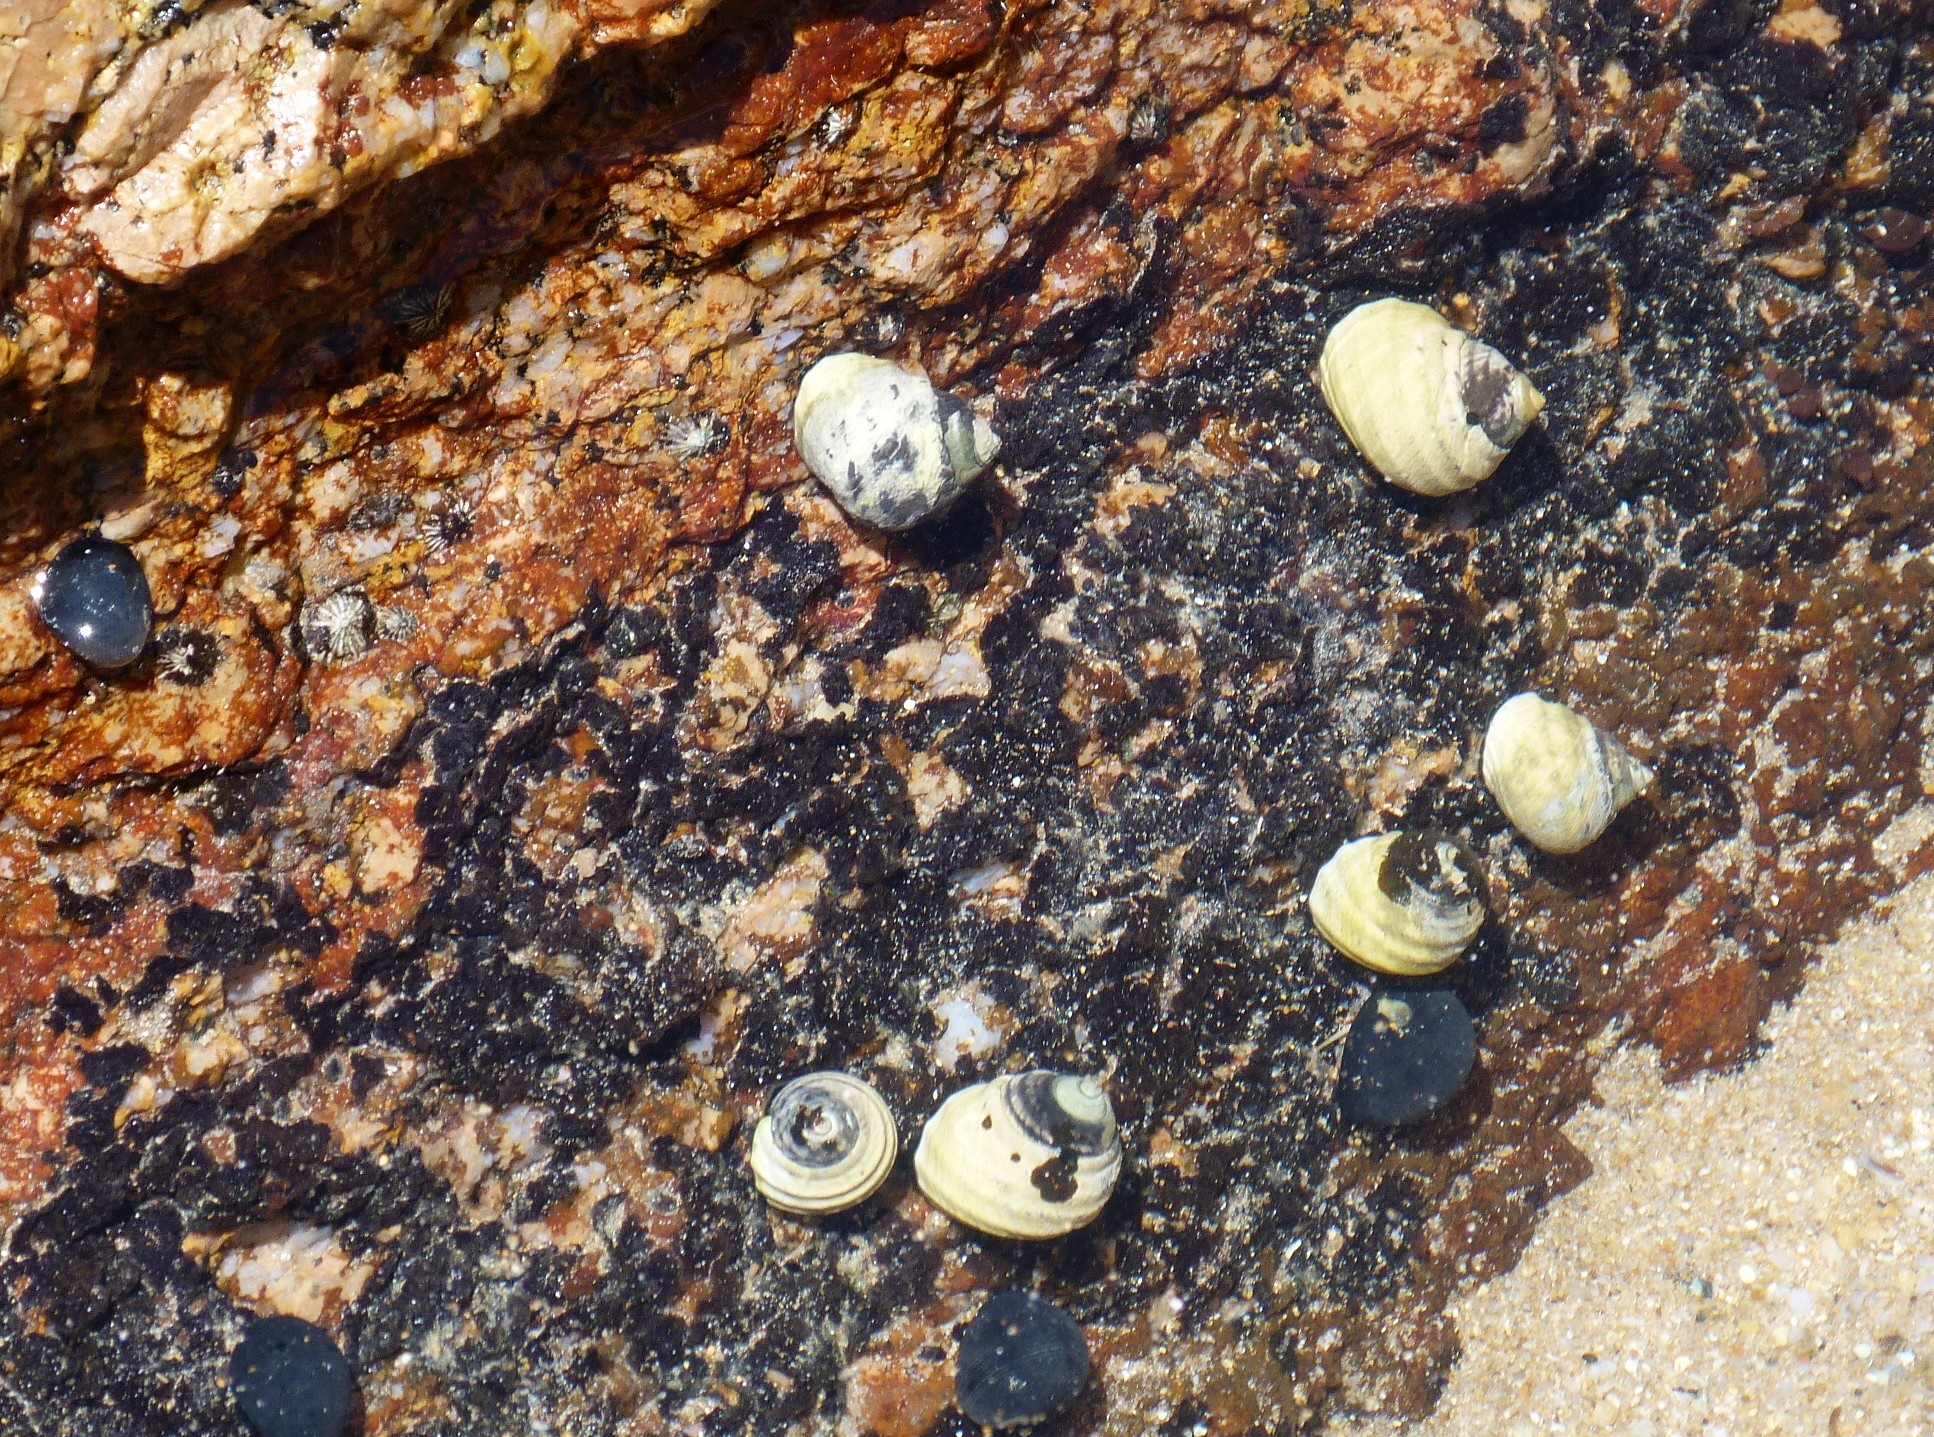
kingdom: Animalia
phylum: Mollusca
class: Gastropoda
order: Trochida
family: Trochidae
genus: Austrocochlea
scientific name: Austrocochlea constricta
